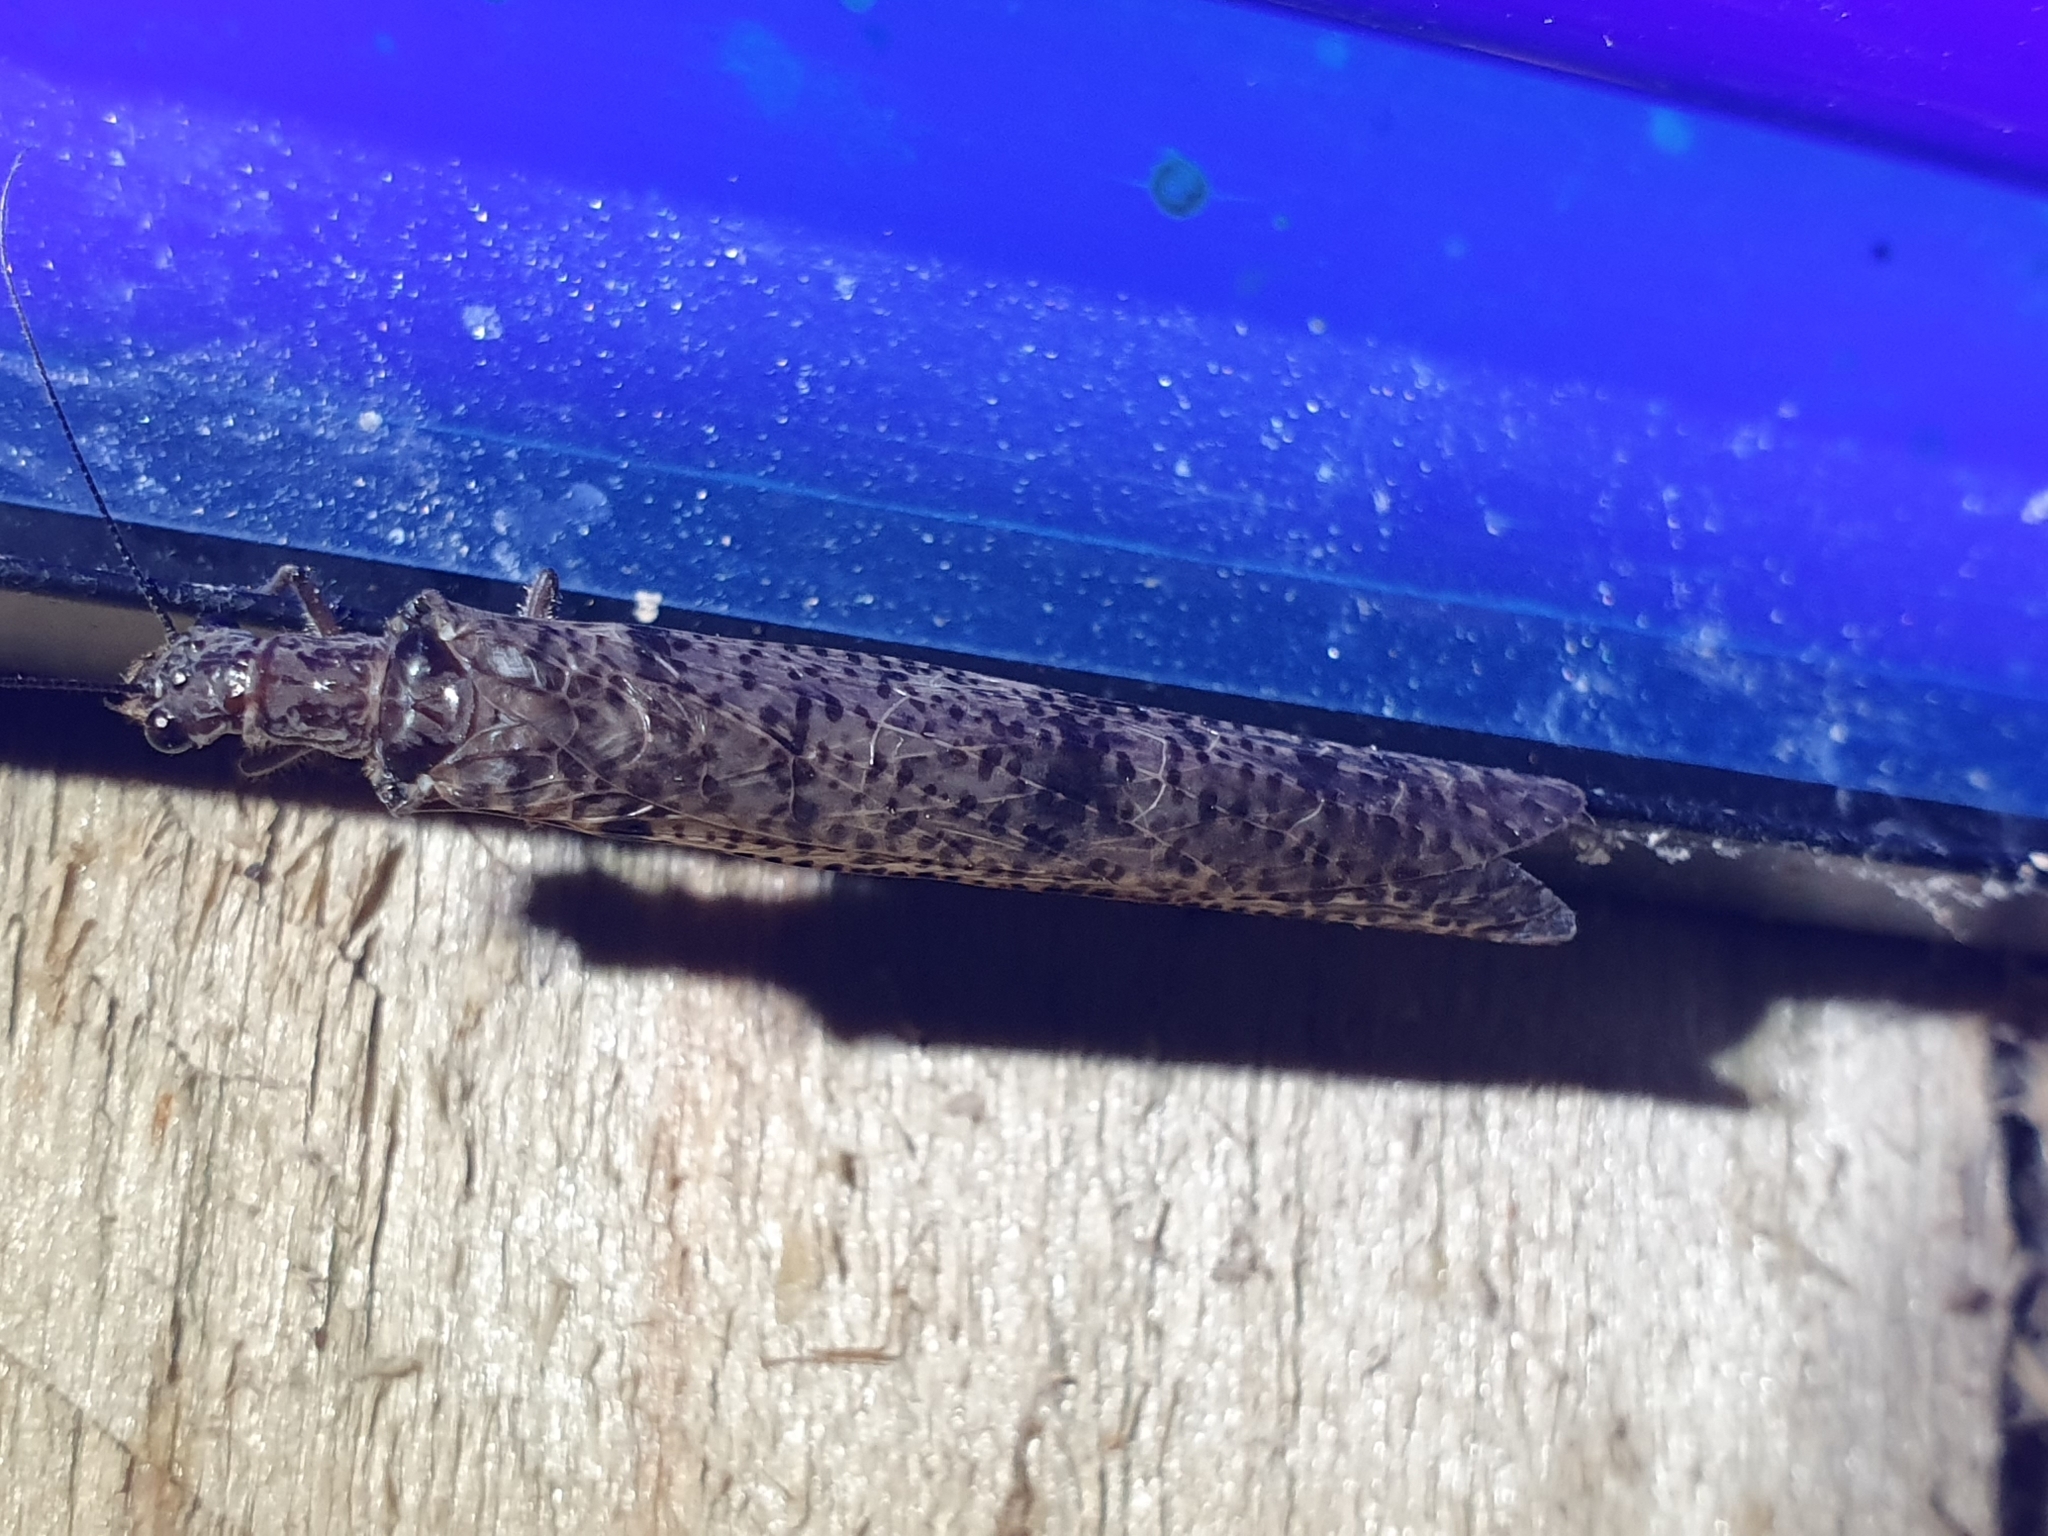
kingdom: Animalia
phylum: Arthropoda
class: Insecta
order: Megaloptera
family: Corydalidae
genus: Archichauliodes
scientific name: Archichauliodes diversus
